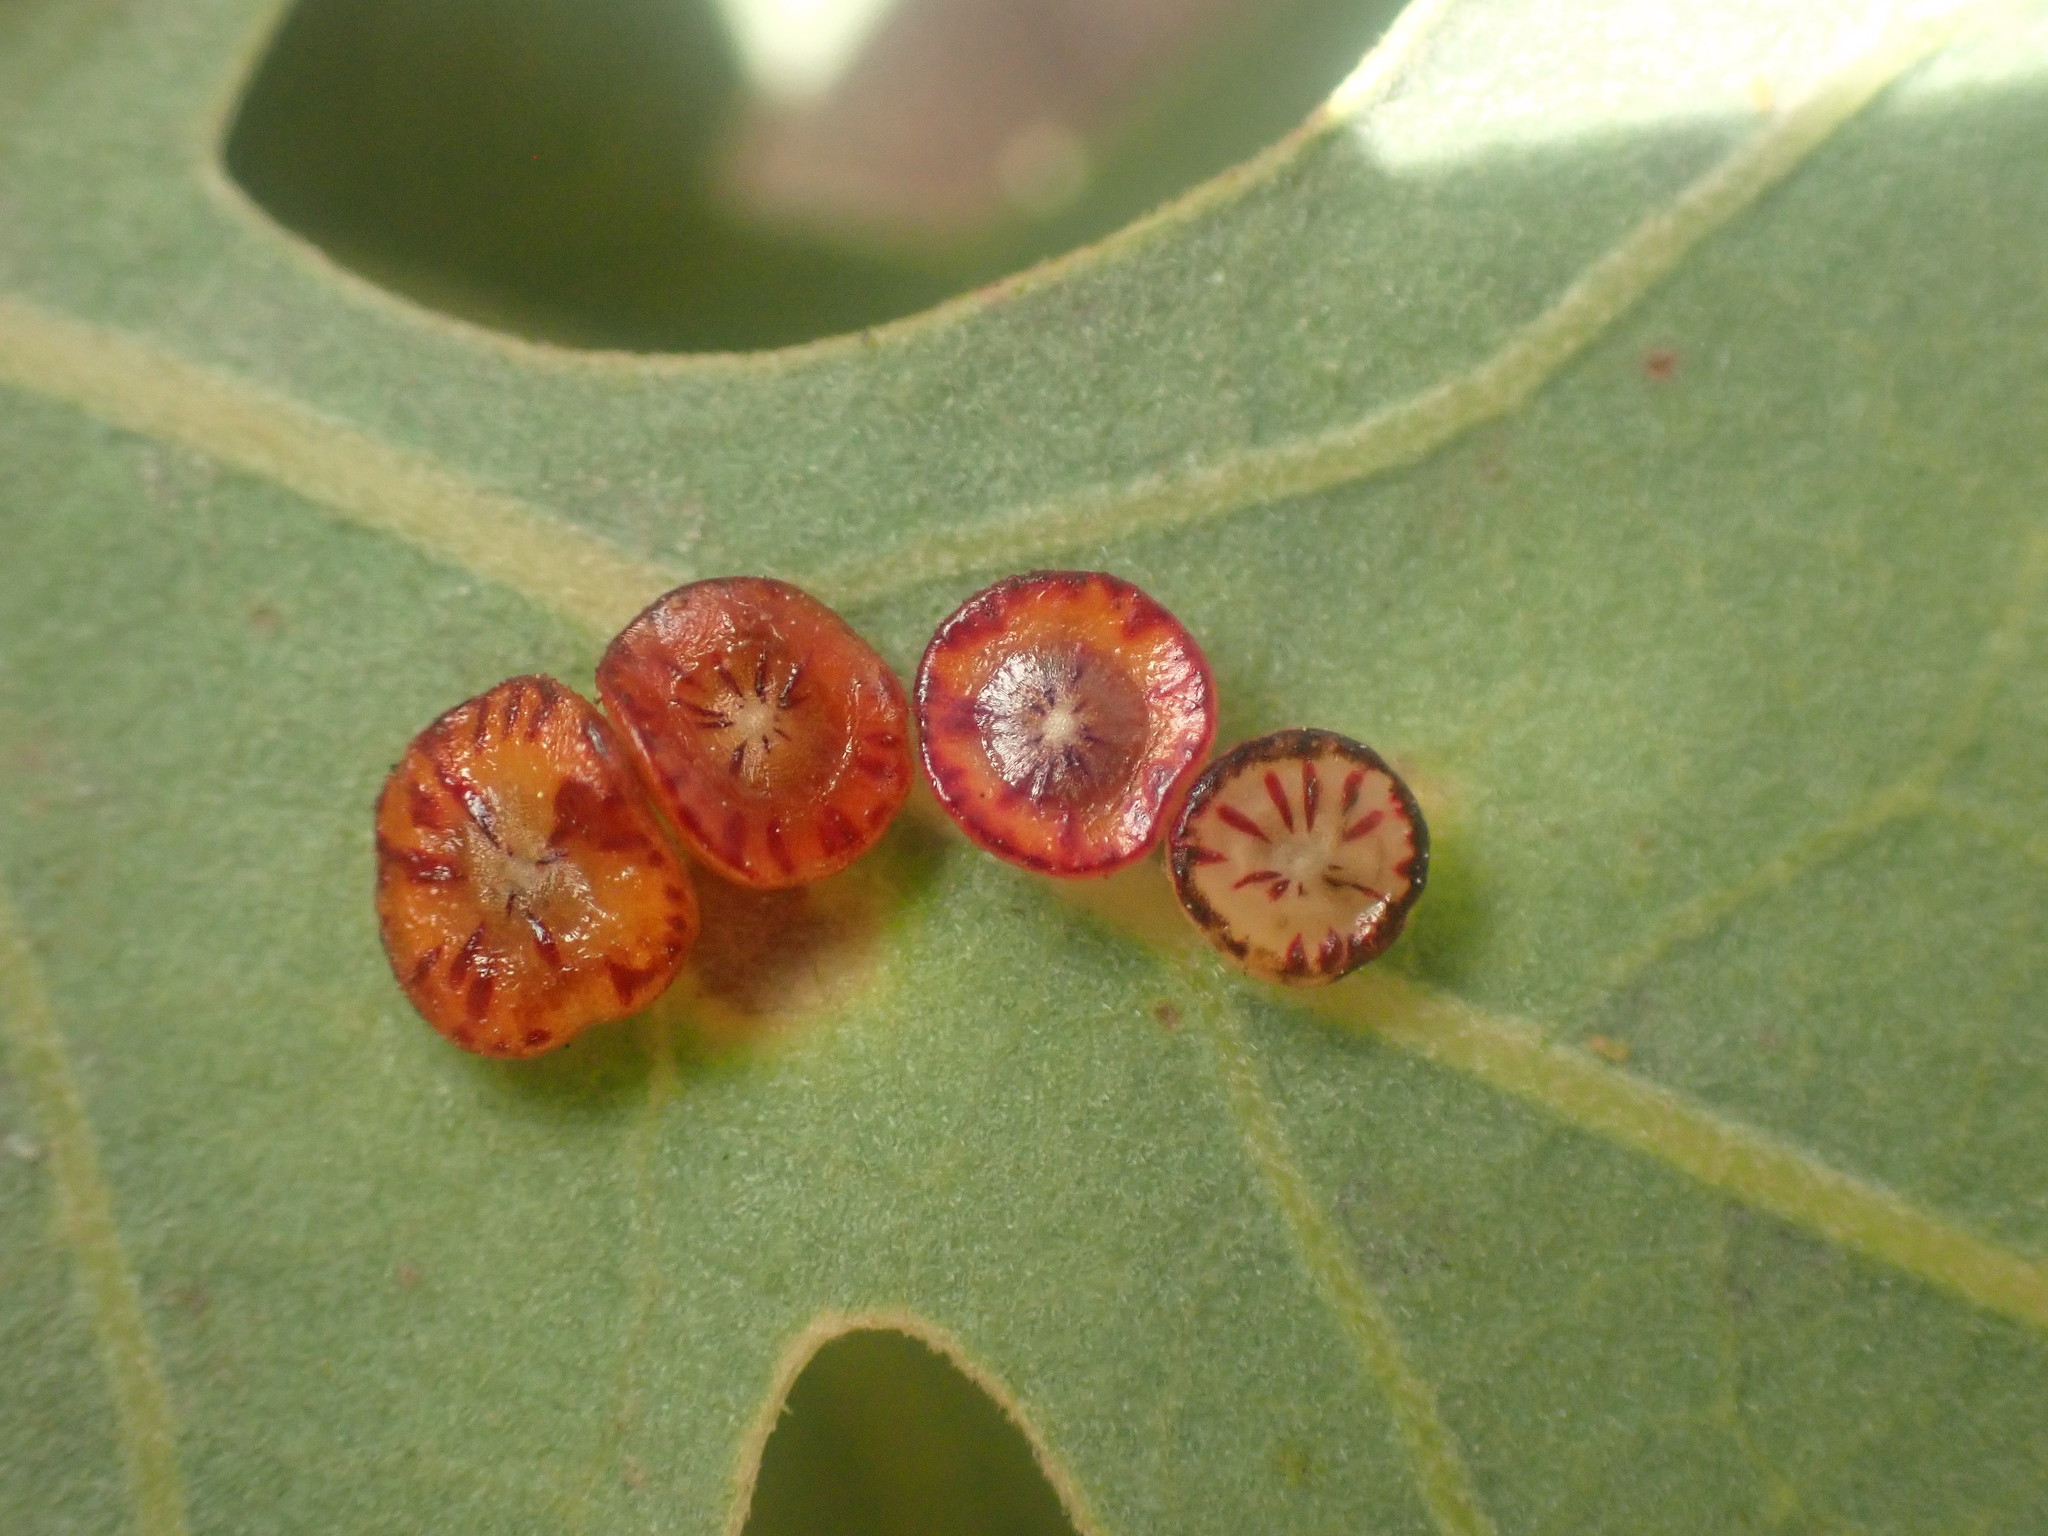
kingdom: Animalia
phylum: Arthropoda
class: Insecta
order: Hymenoptera
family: Cynipidae
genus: Andricus
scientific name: Andricus
